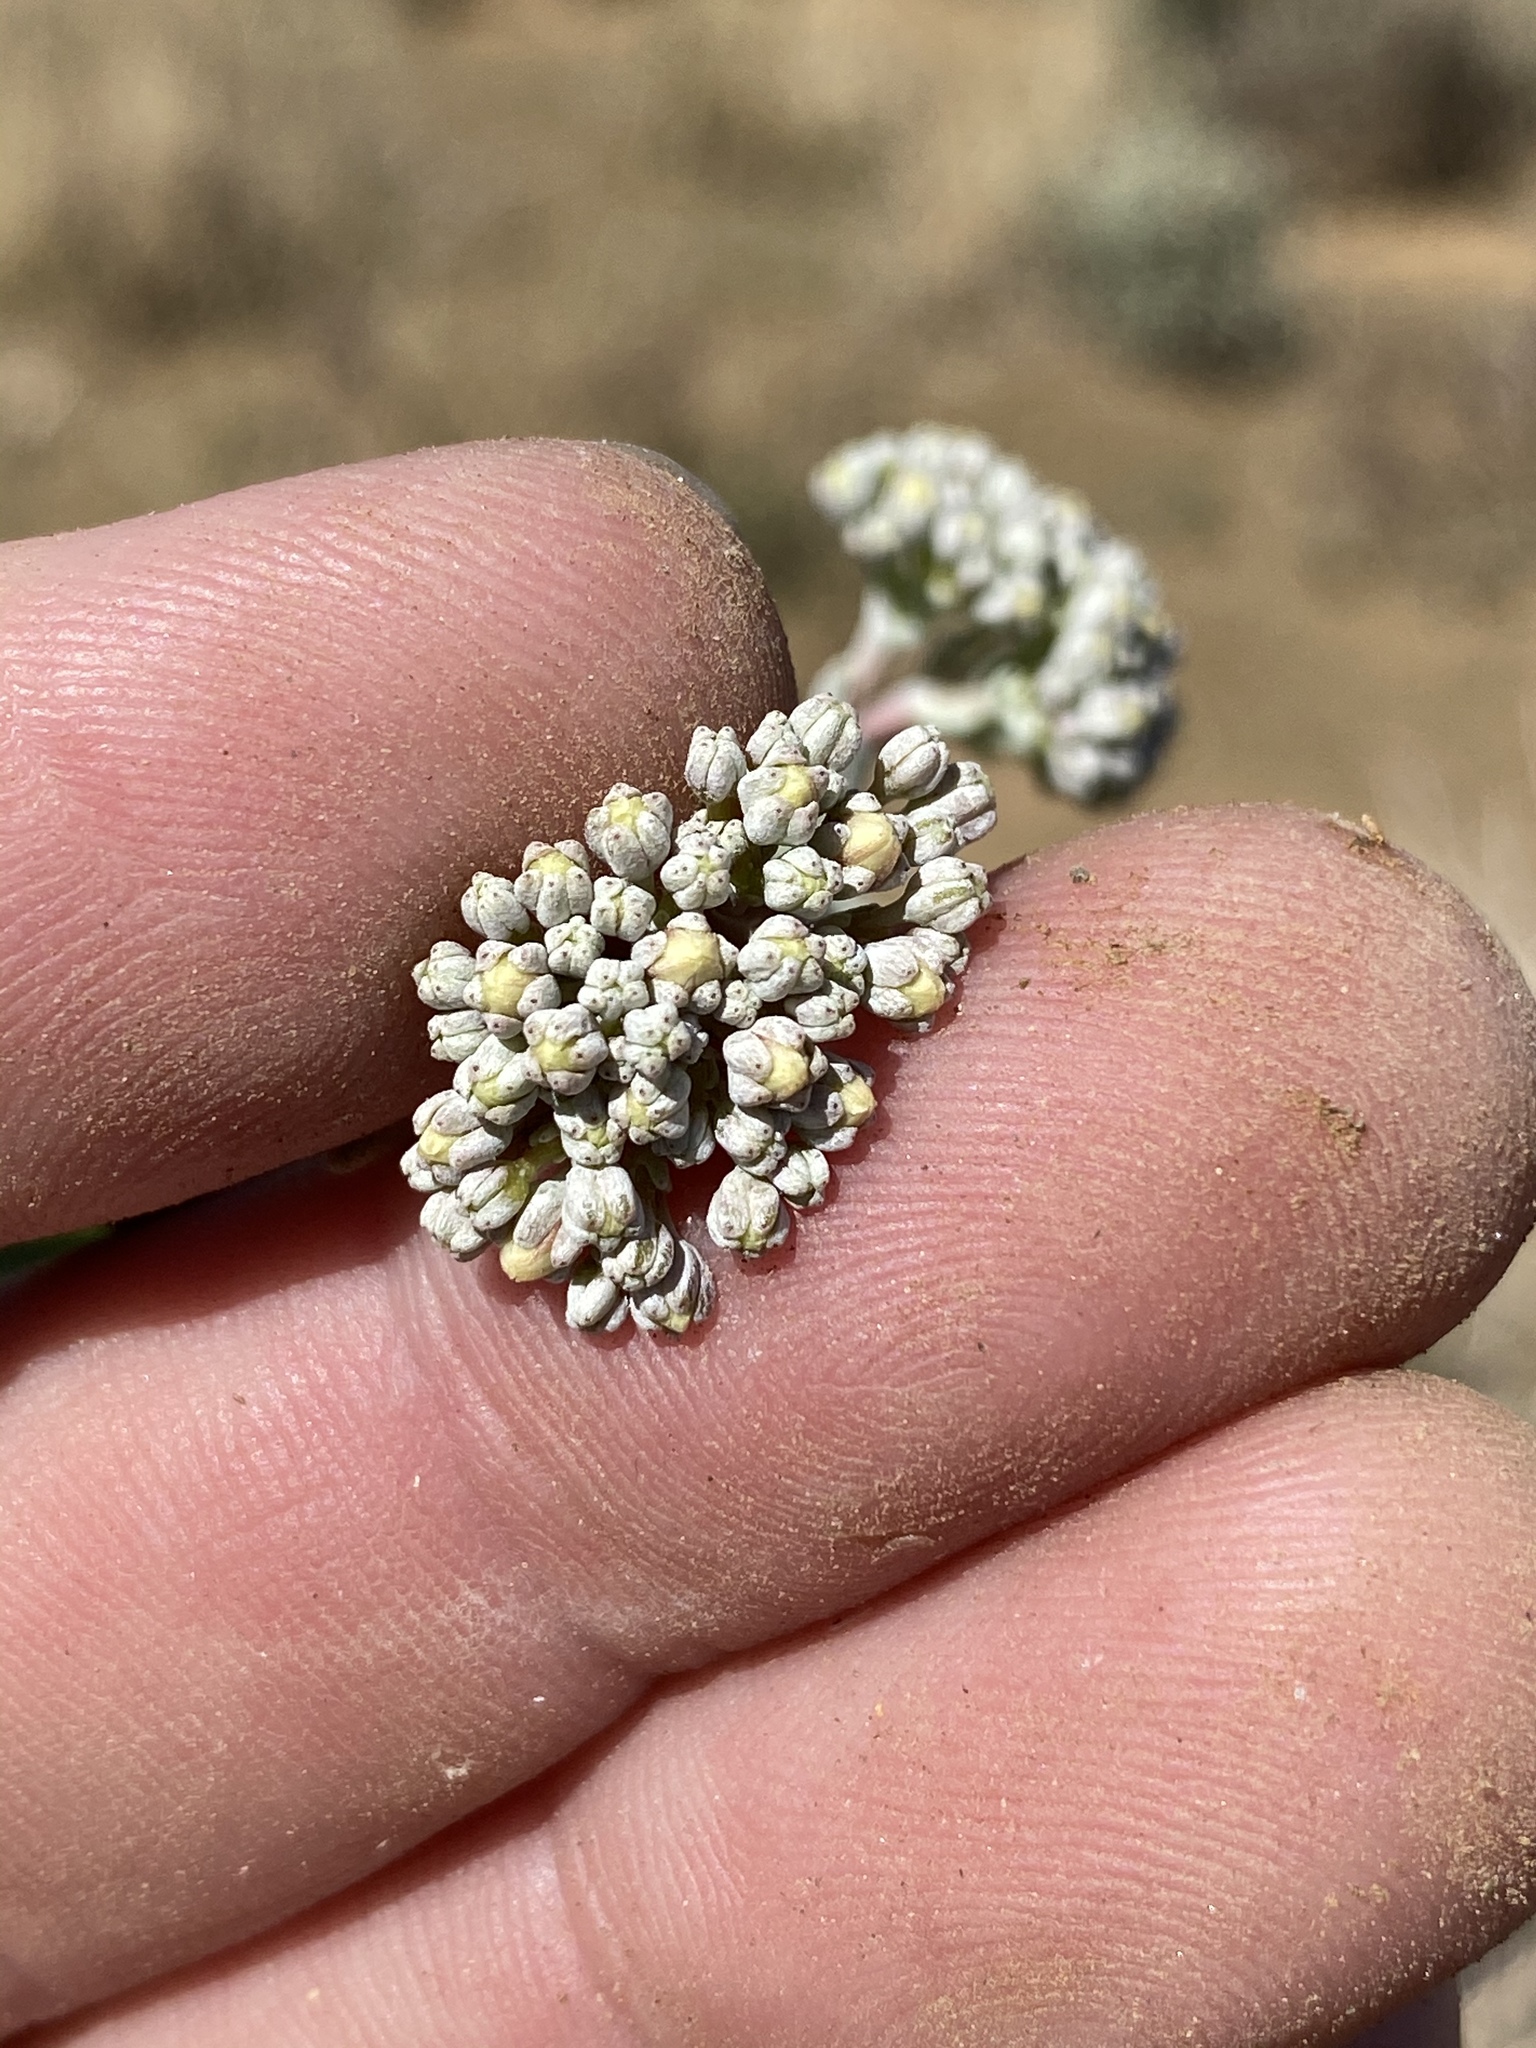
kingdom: Plantae
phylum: Tracheophyta
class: Magnoliopsida
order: Saxifragales
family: Crassulaceae
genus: Crassula
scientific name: Crassula deltoidea
